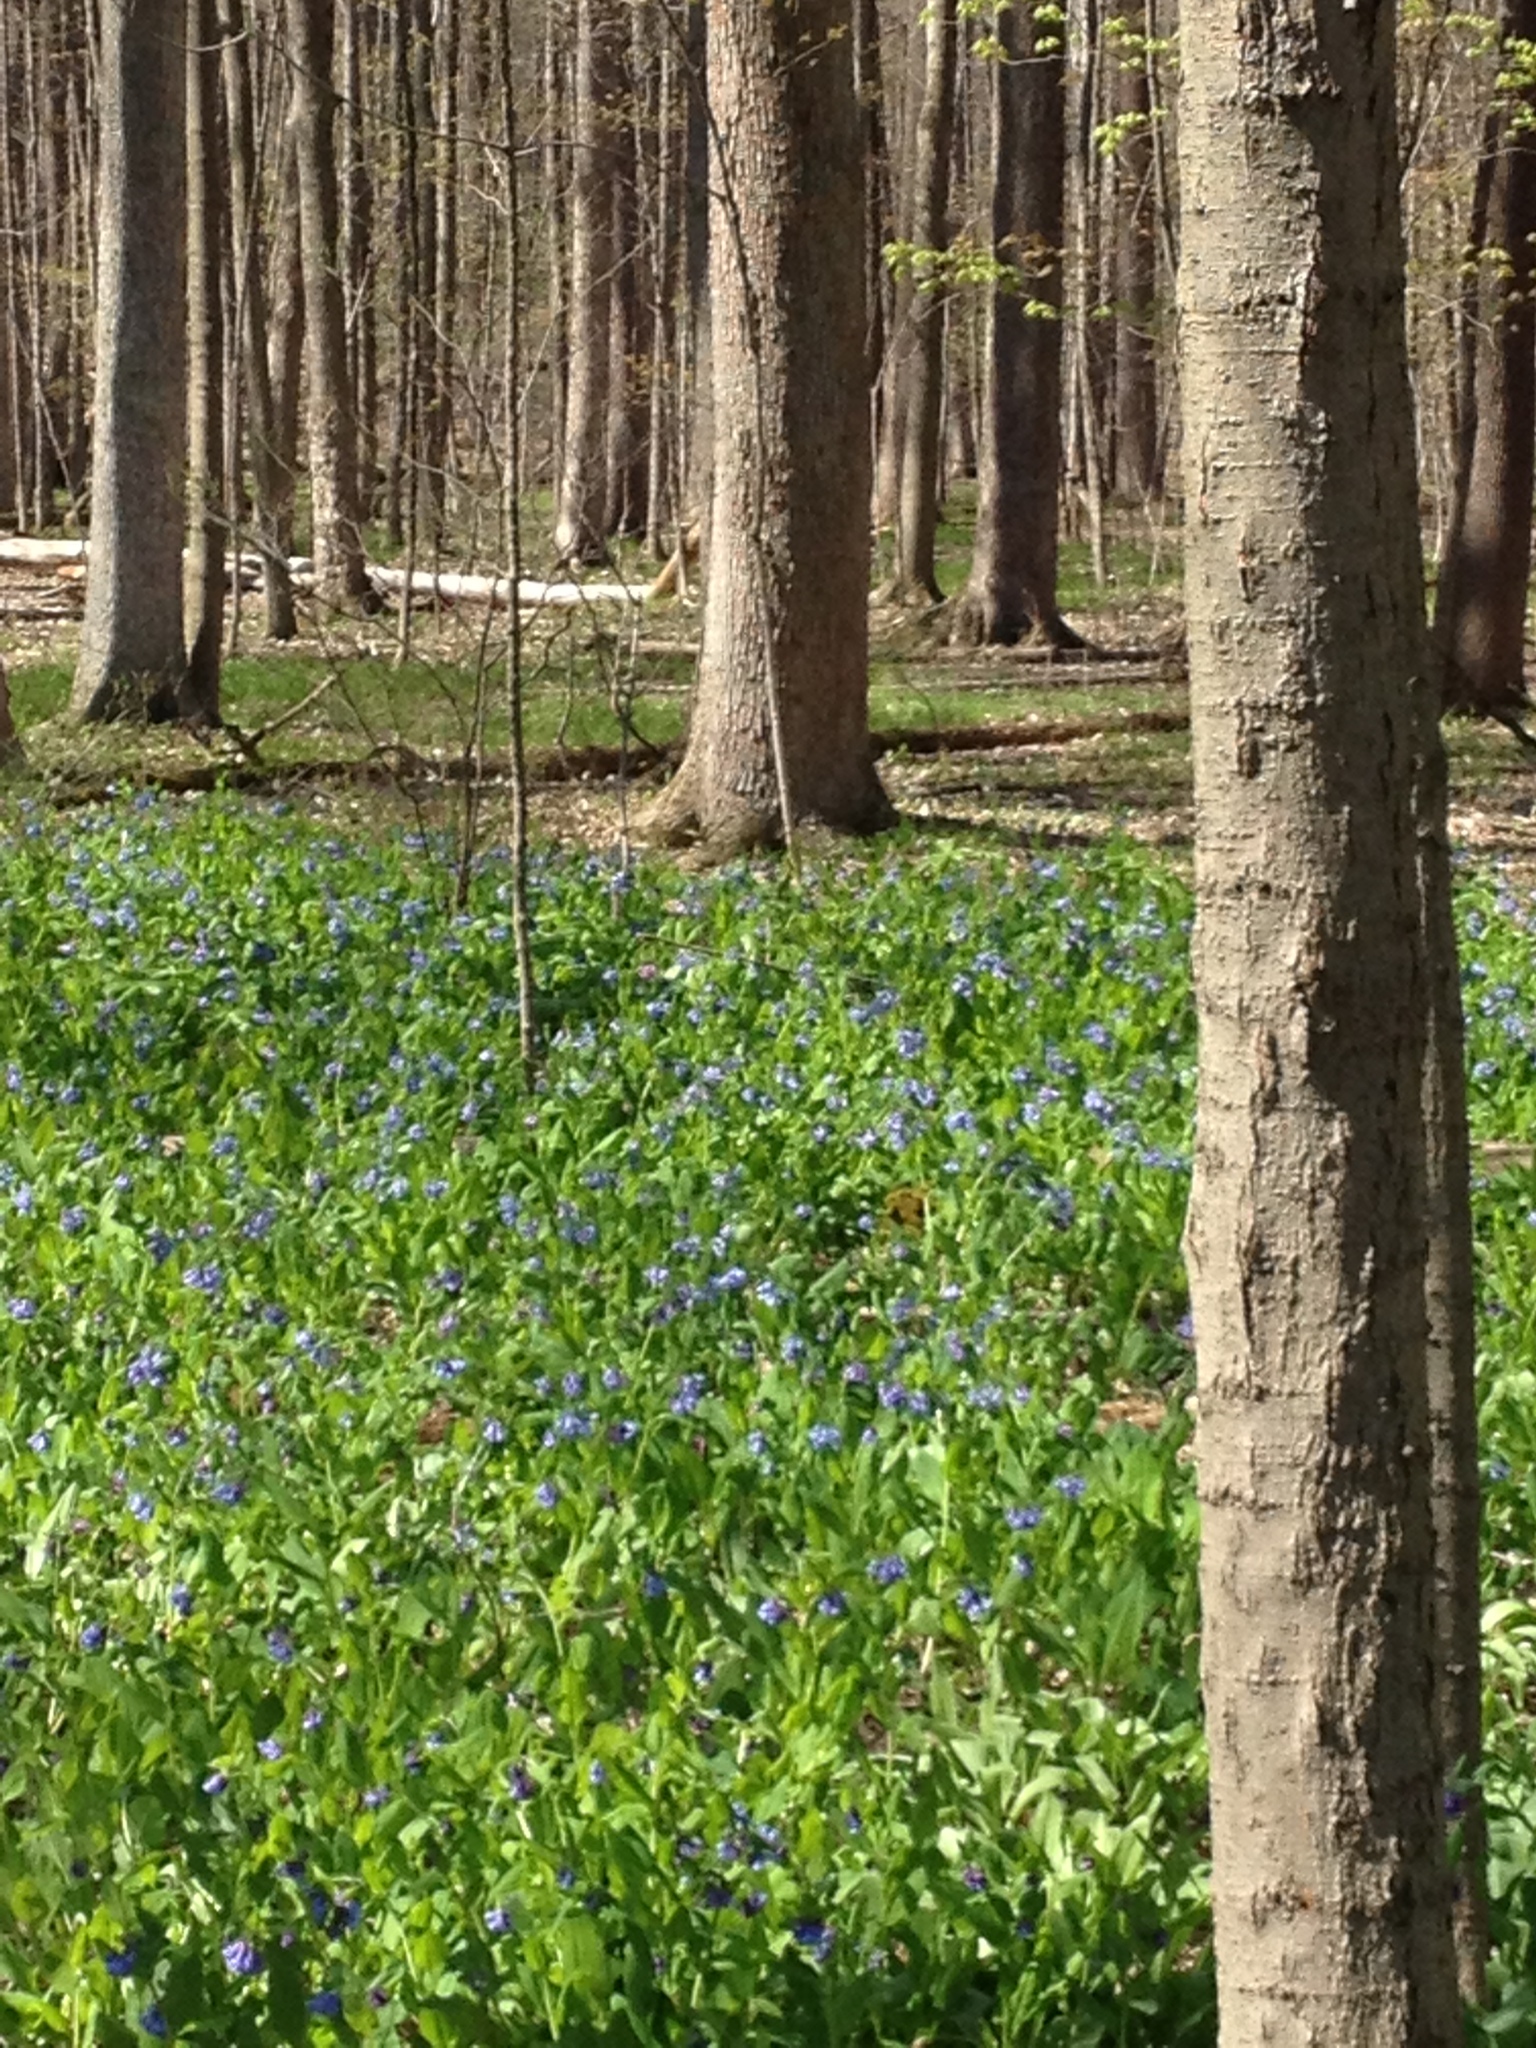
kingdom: Plantae
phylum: Tracheophyta
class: Magnoliopsida
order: Boraginales
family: Boraginaceae
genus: Mertensia
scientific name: Mertensia virginica
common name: Virginia bluebells
